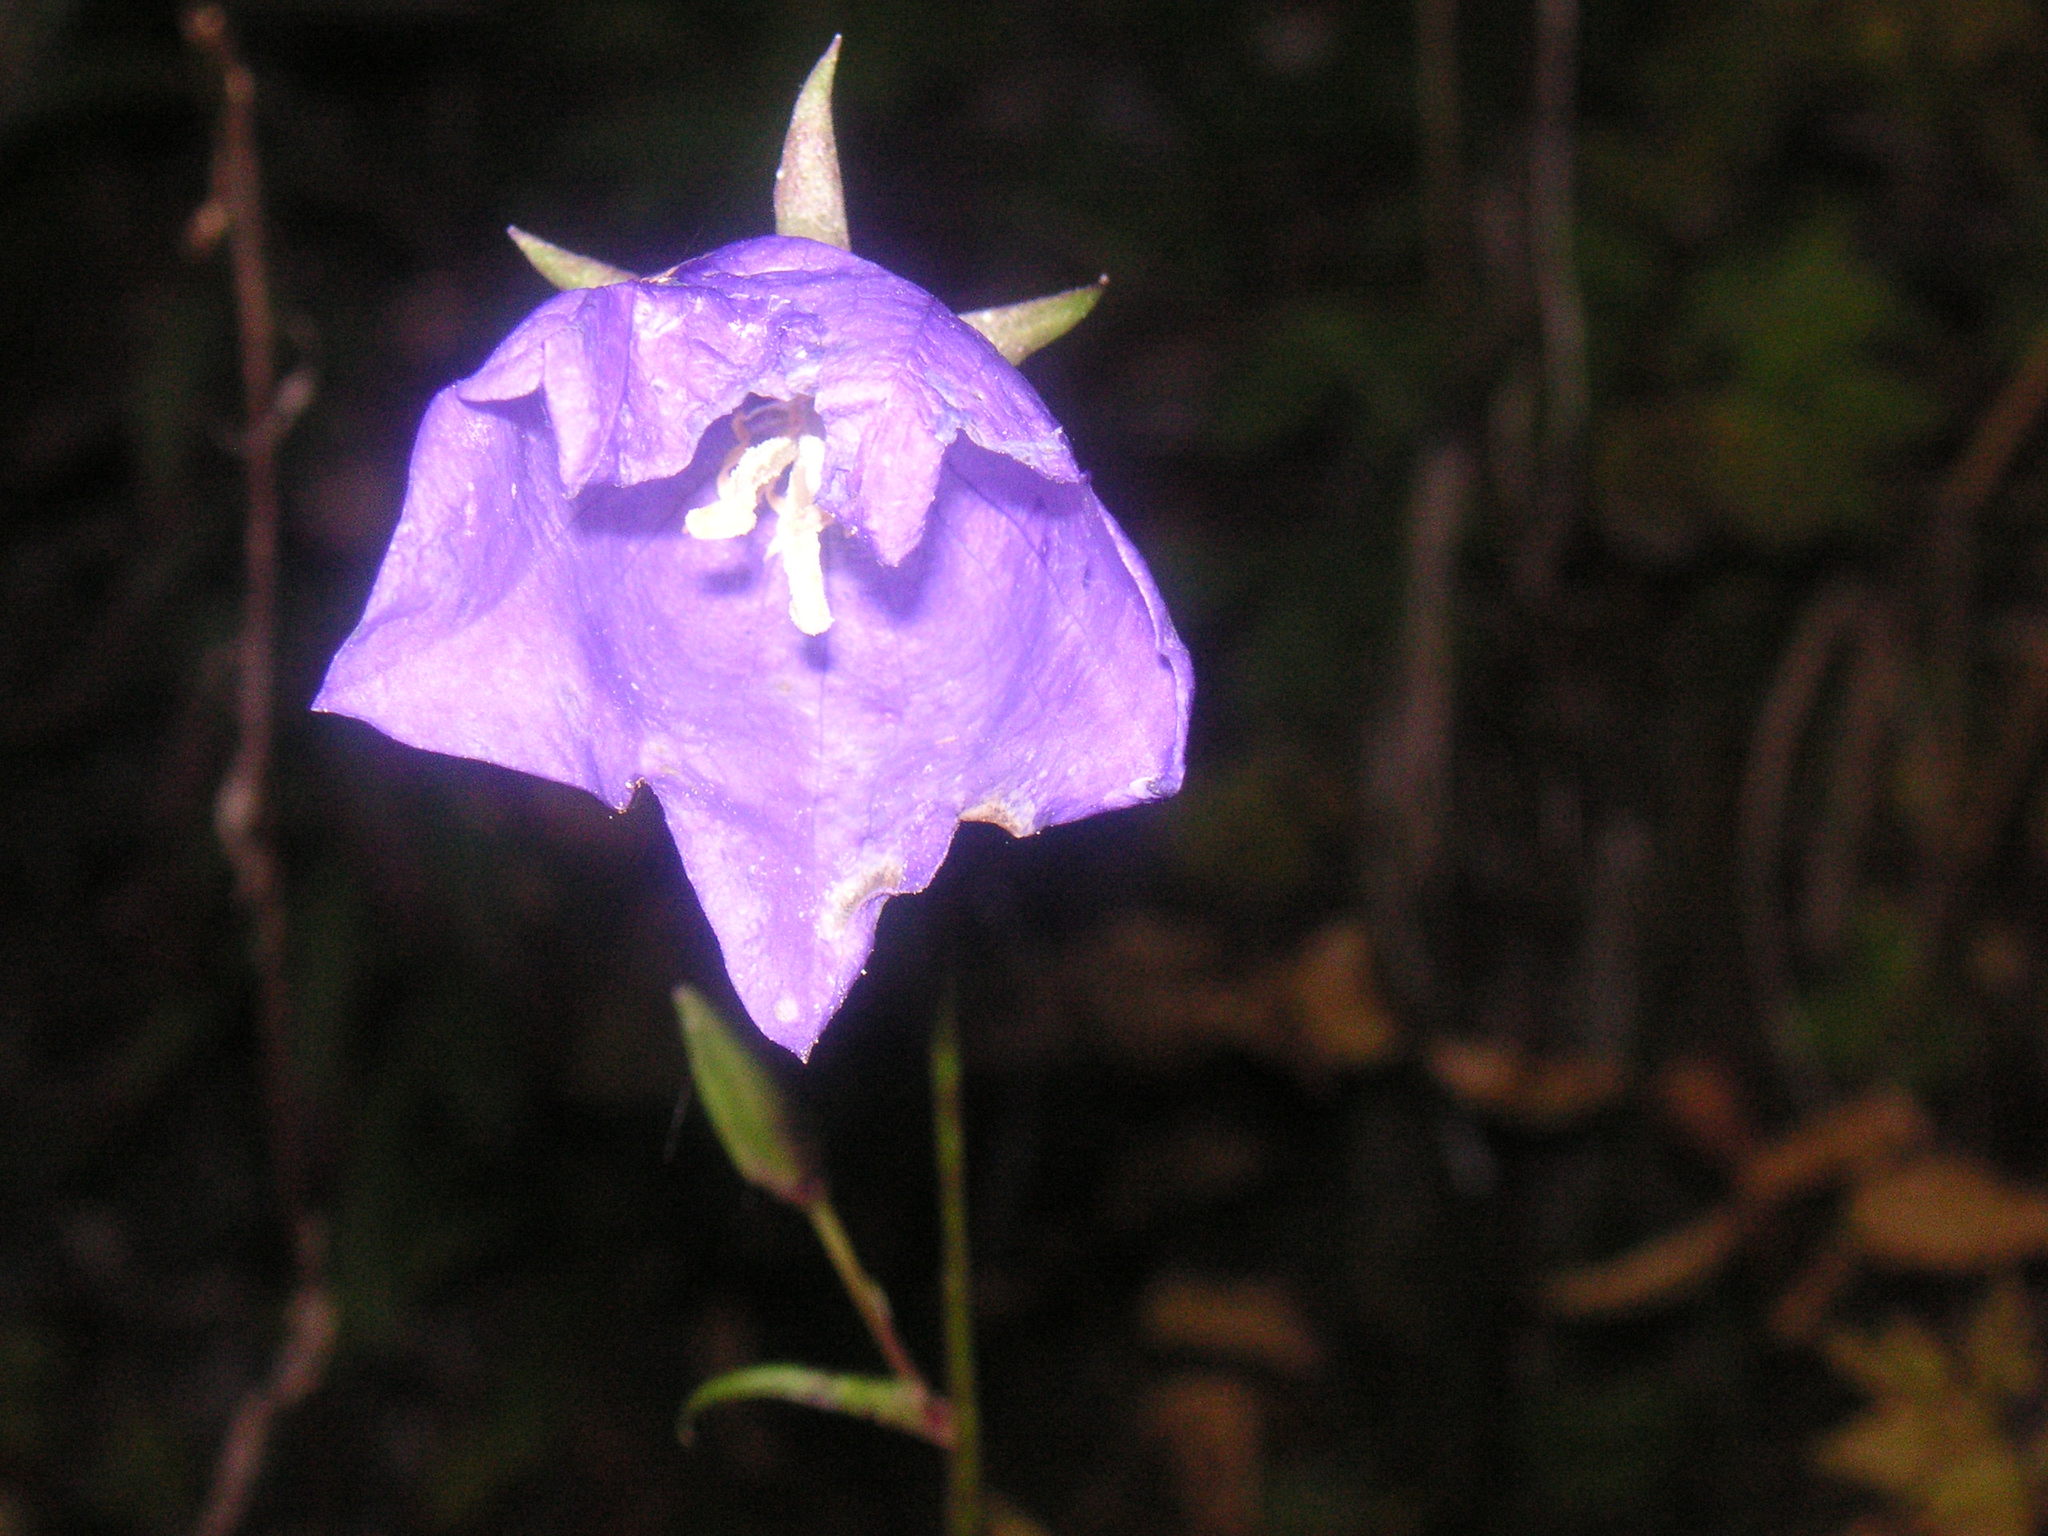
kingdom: Plantae
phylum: Tracheophyta
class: Magnoliopsida
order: Asterales
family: Campanulaceae
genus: Campanula
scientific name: Campanula persicifolia
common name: Peach-leaved bellflower
